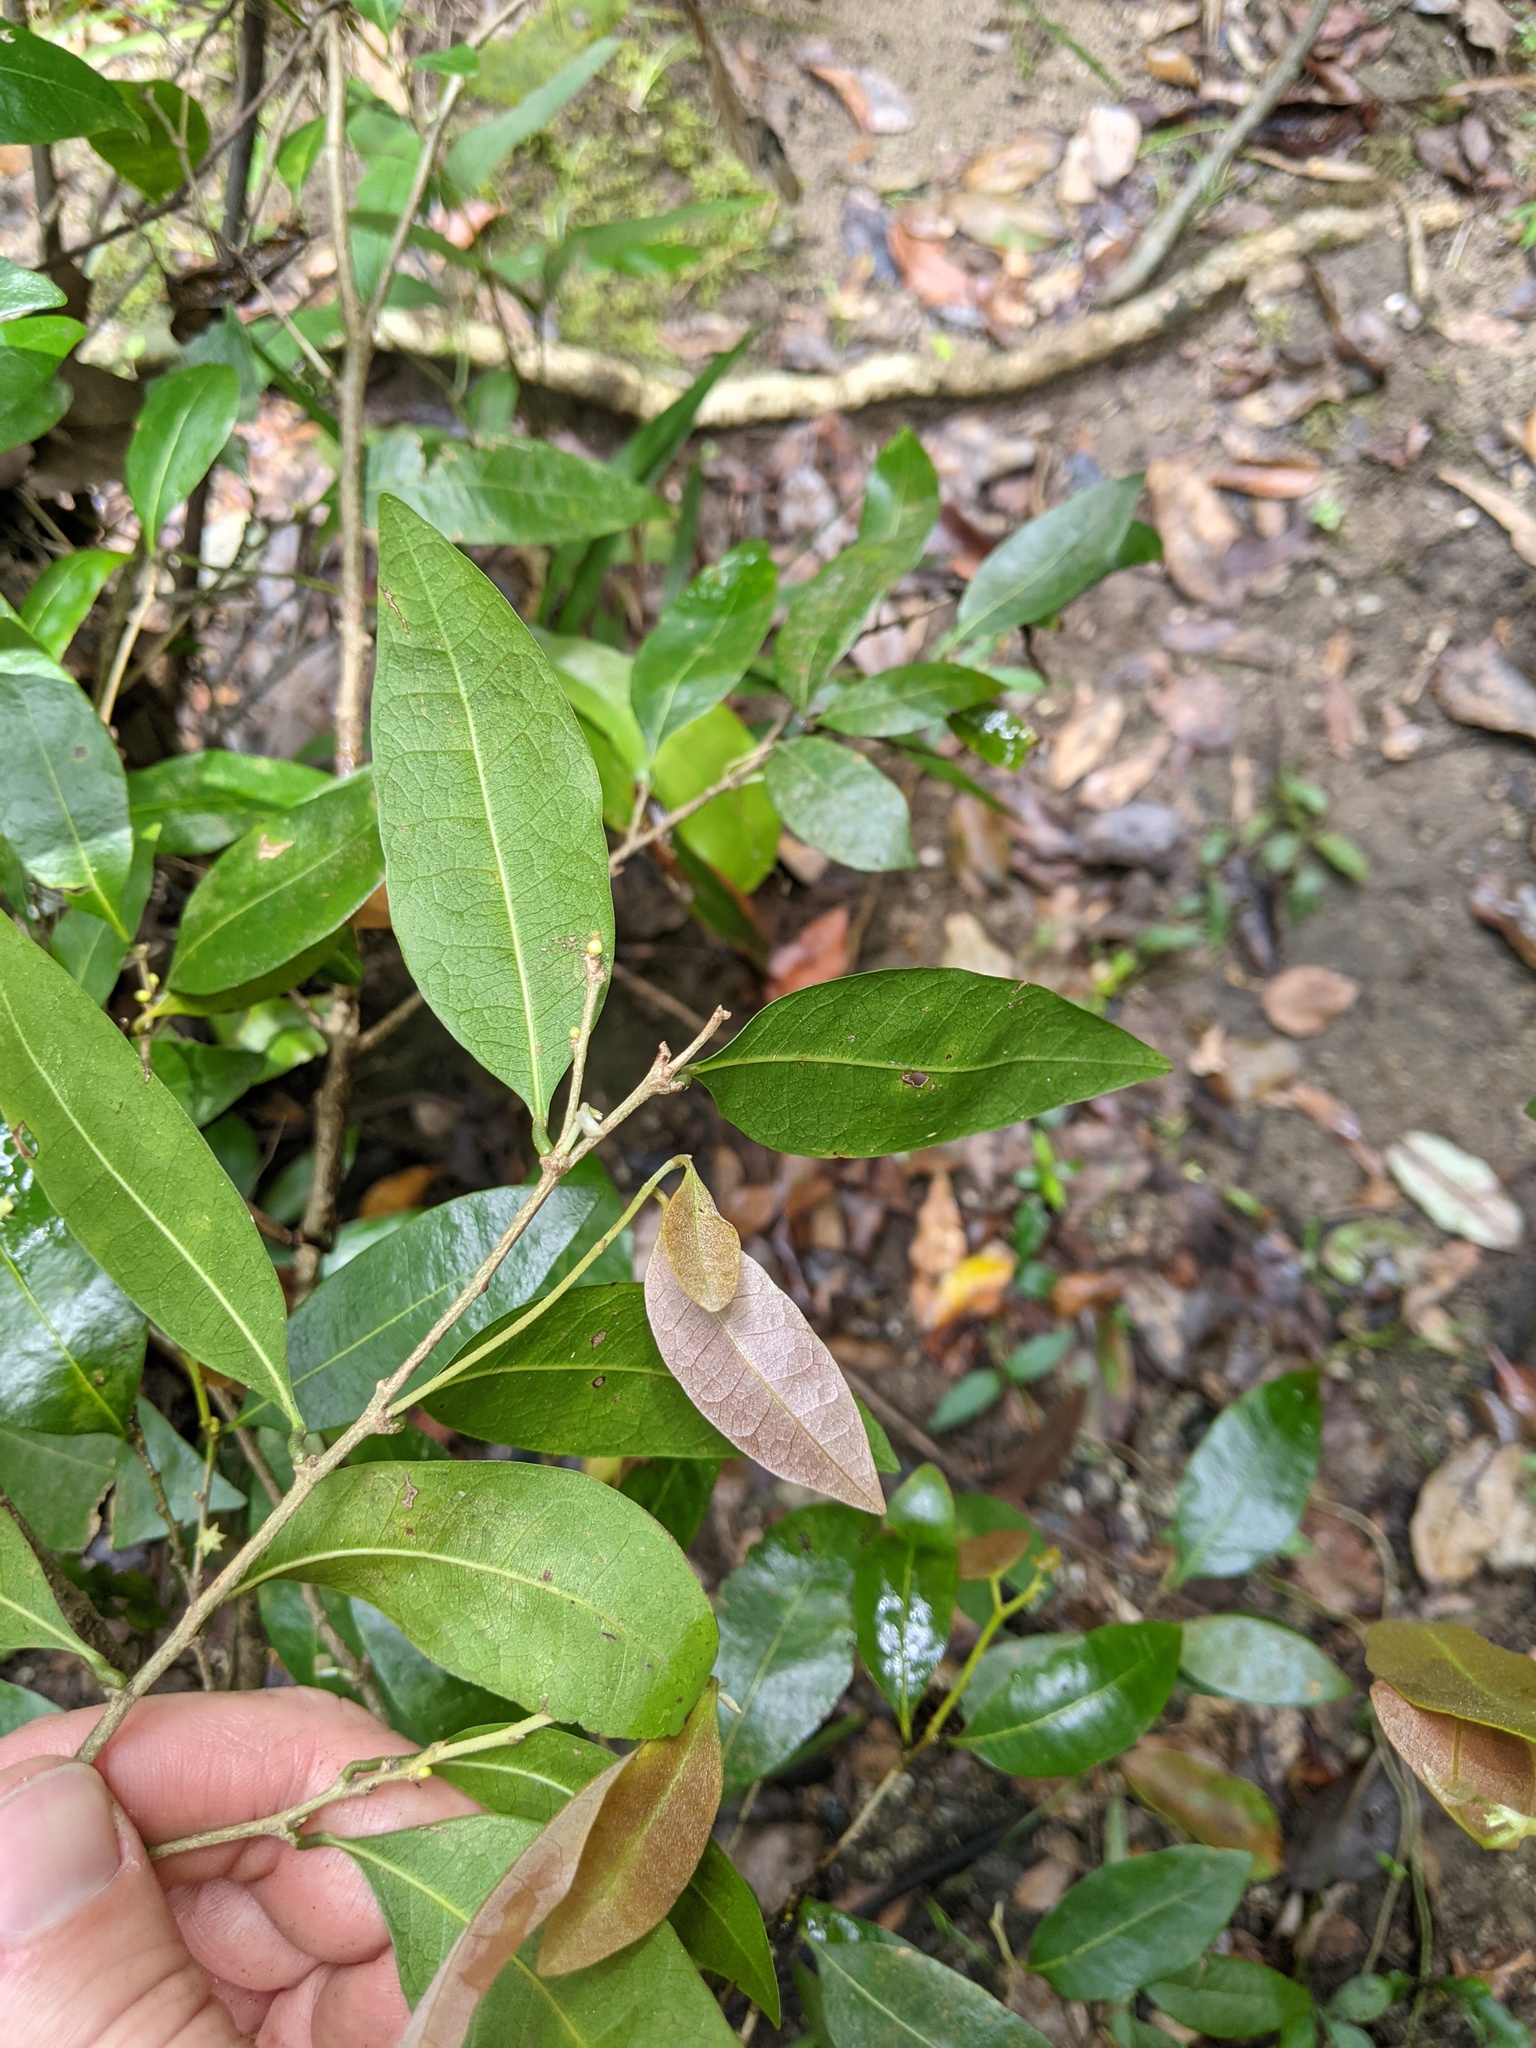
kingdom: Plantae
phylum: Tracheophyta
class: Magnoliopsida
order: Malpighiales
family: Phyllanthaceae
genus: Cleistanthus
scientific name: Cleistanthus cunninghamii
